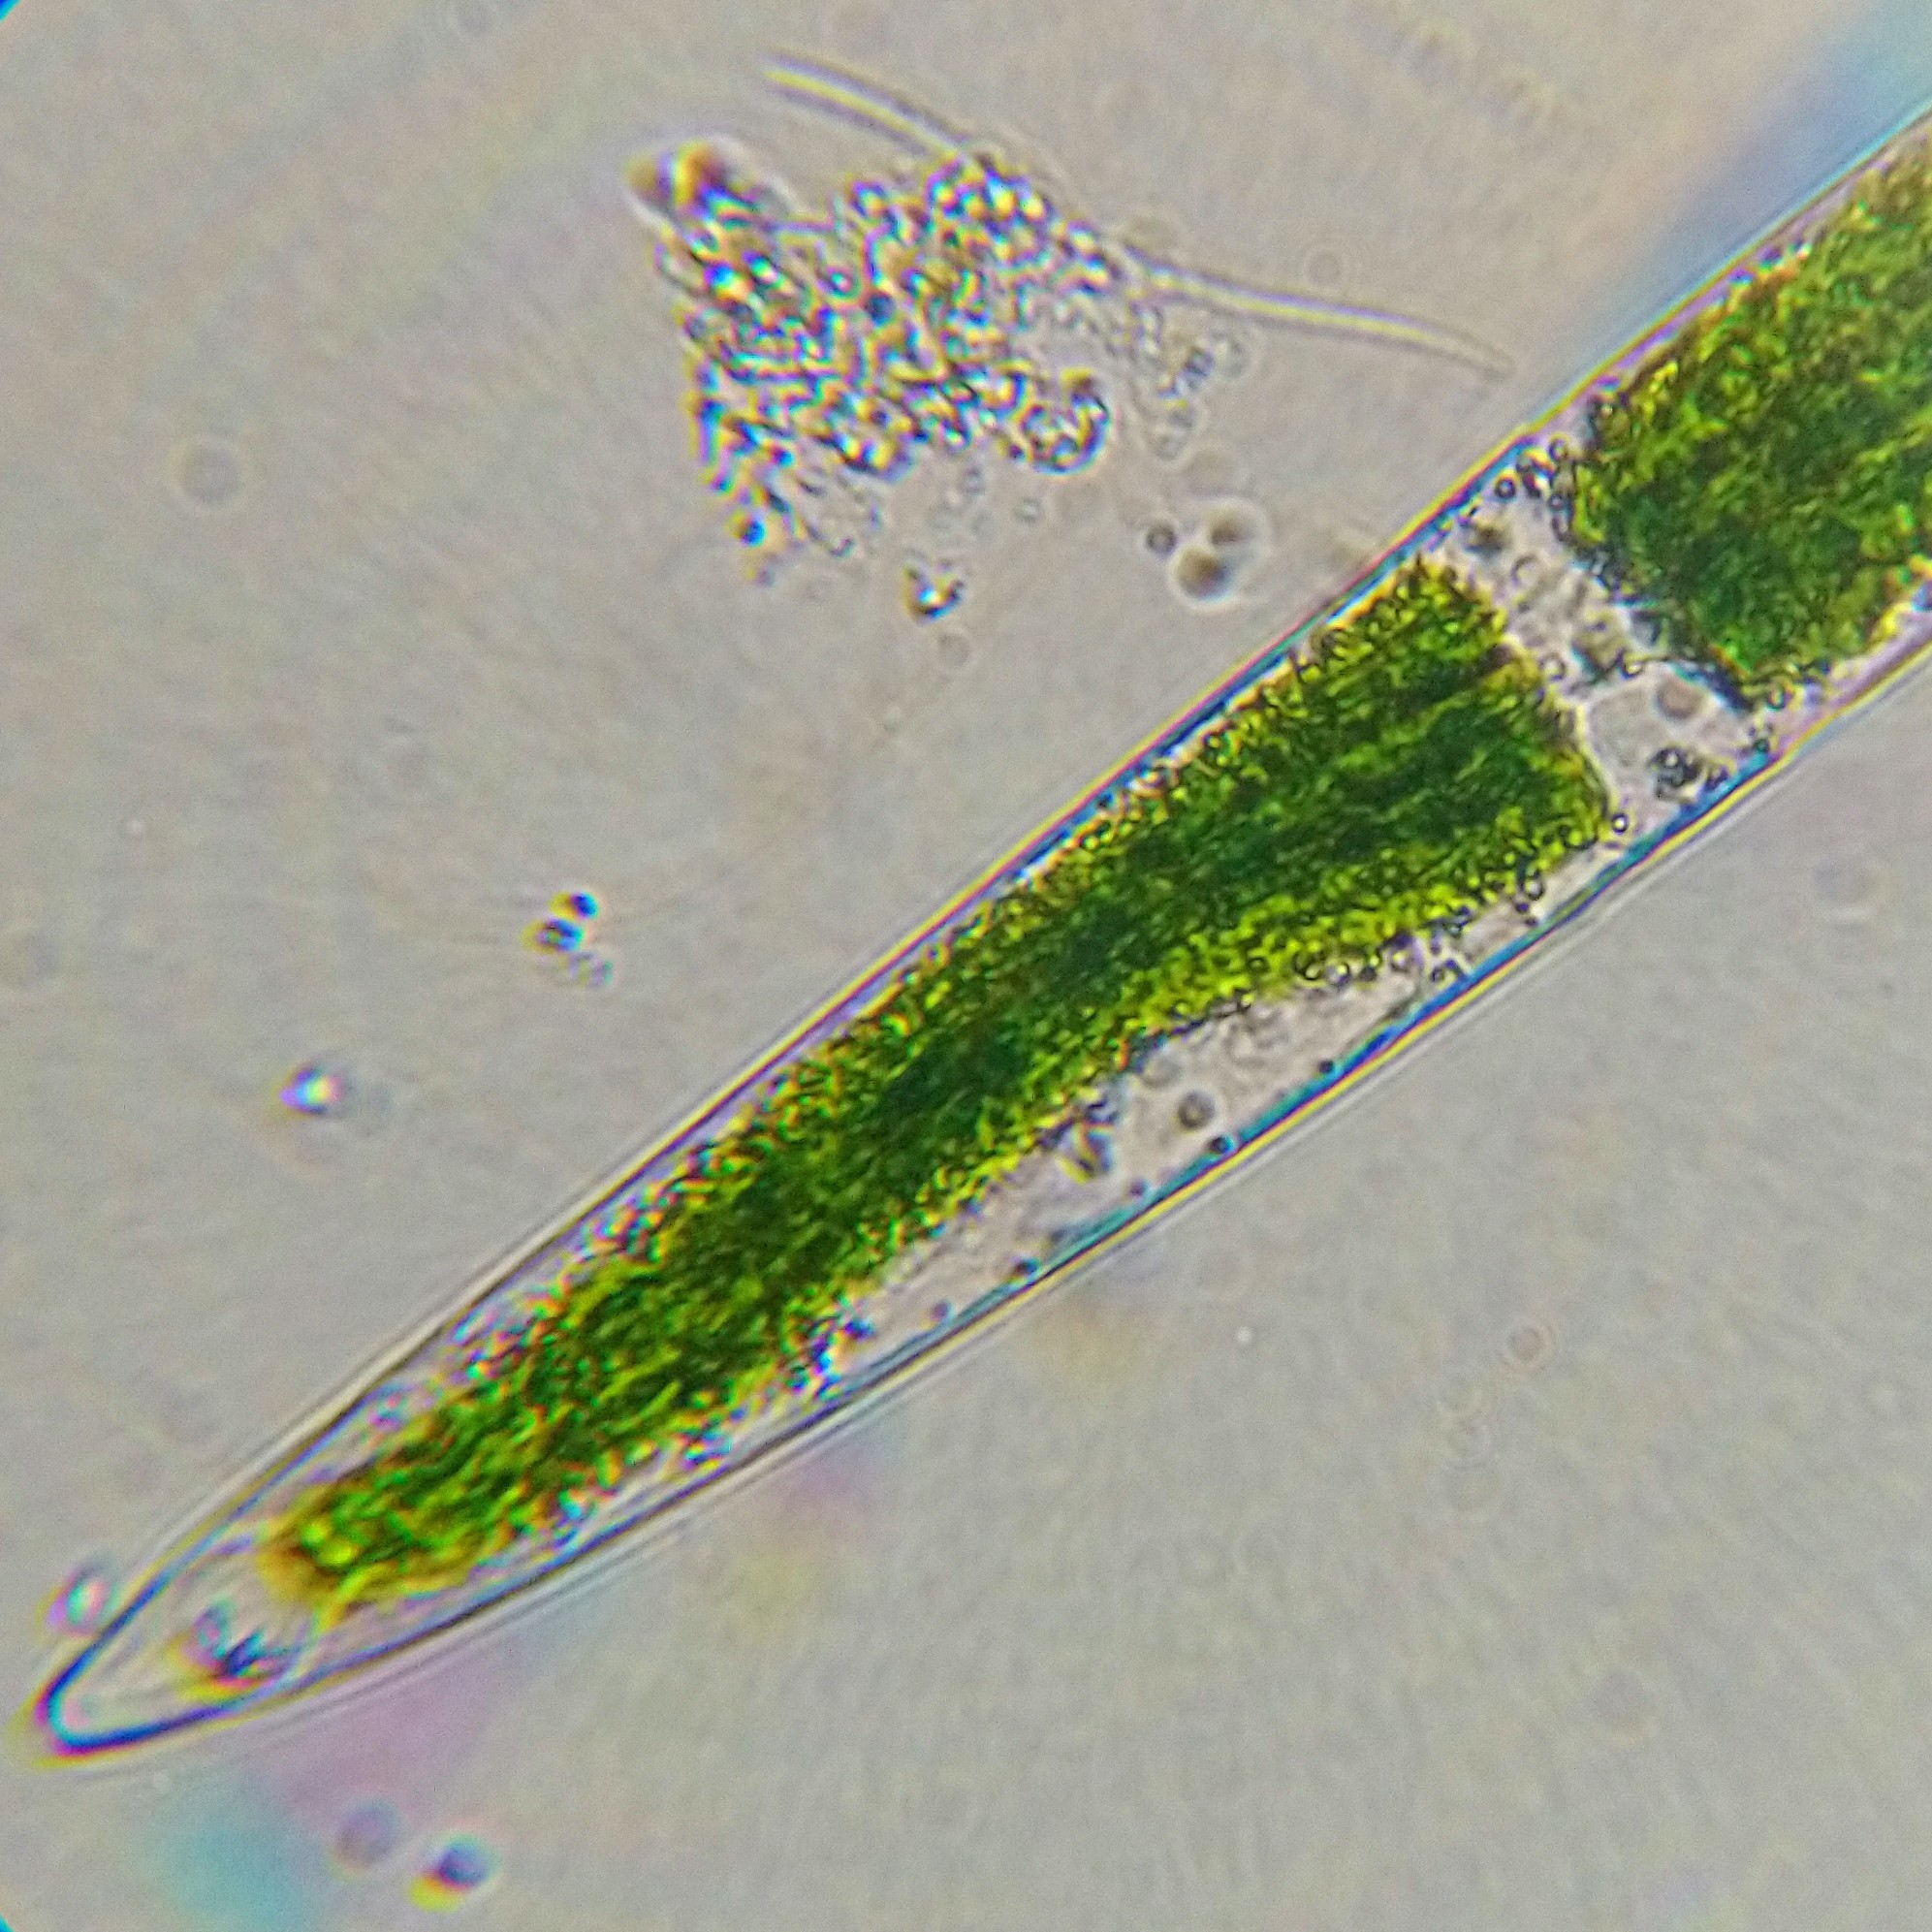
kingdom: Plantae
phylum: Charophyta
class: Zygnematophyceae
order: Zygnematales
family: Closteriaceae
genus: Closterium
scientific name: Closterium acerosum
